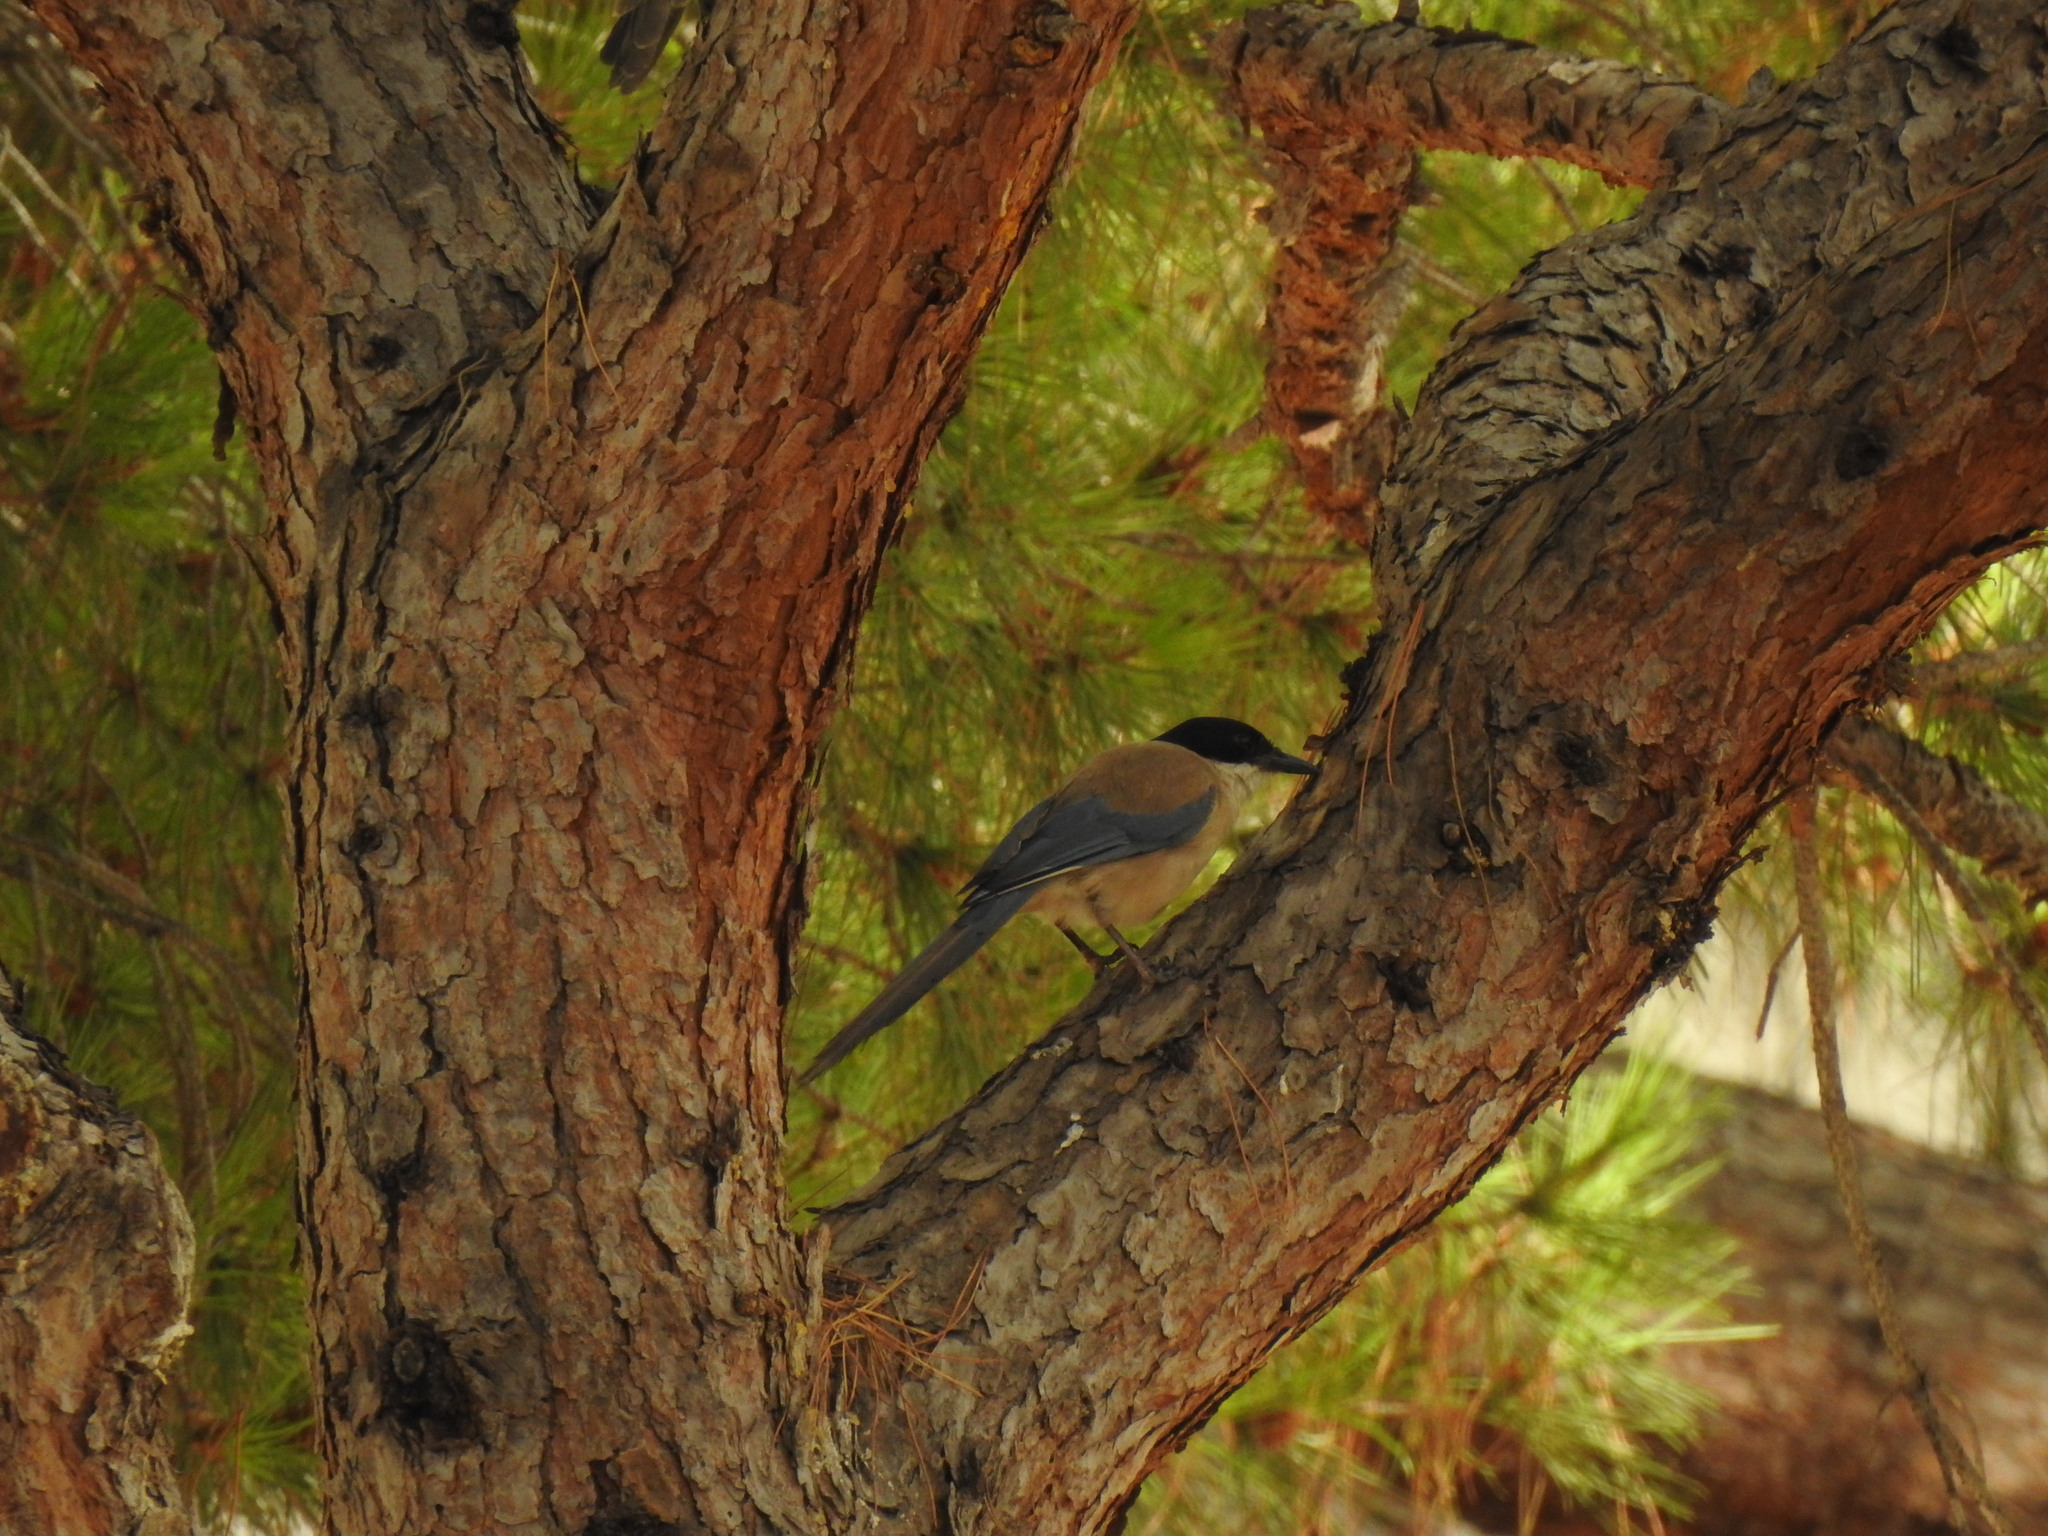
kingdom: Animalia
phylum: Chordata
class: Aves
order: Passeriformes
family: Corvidae
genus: Cyanopica
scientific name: Cyanopica cooki
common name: Iberian magpie
